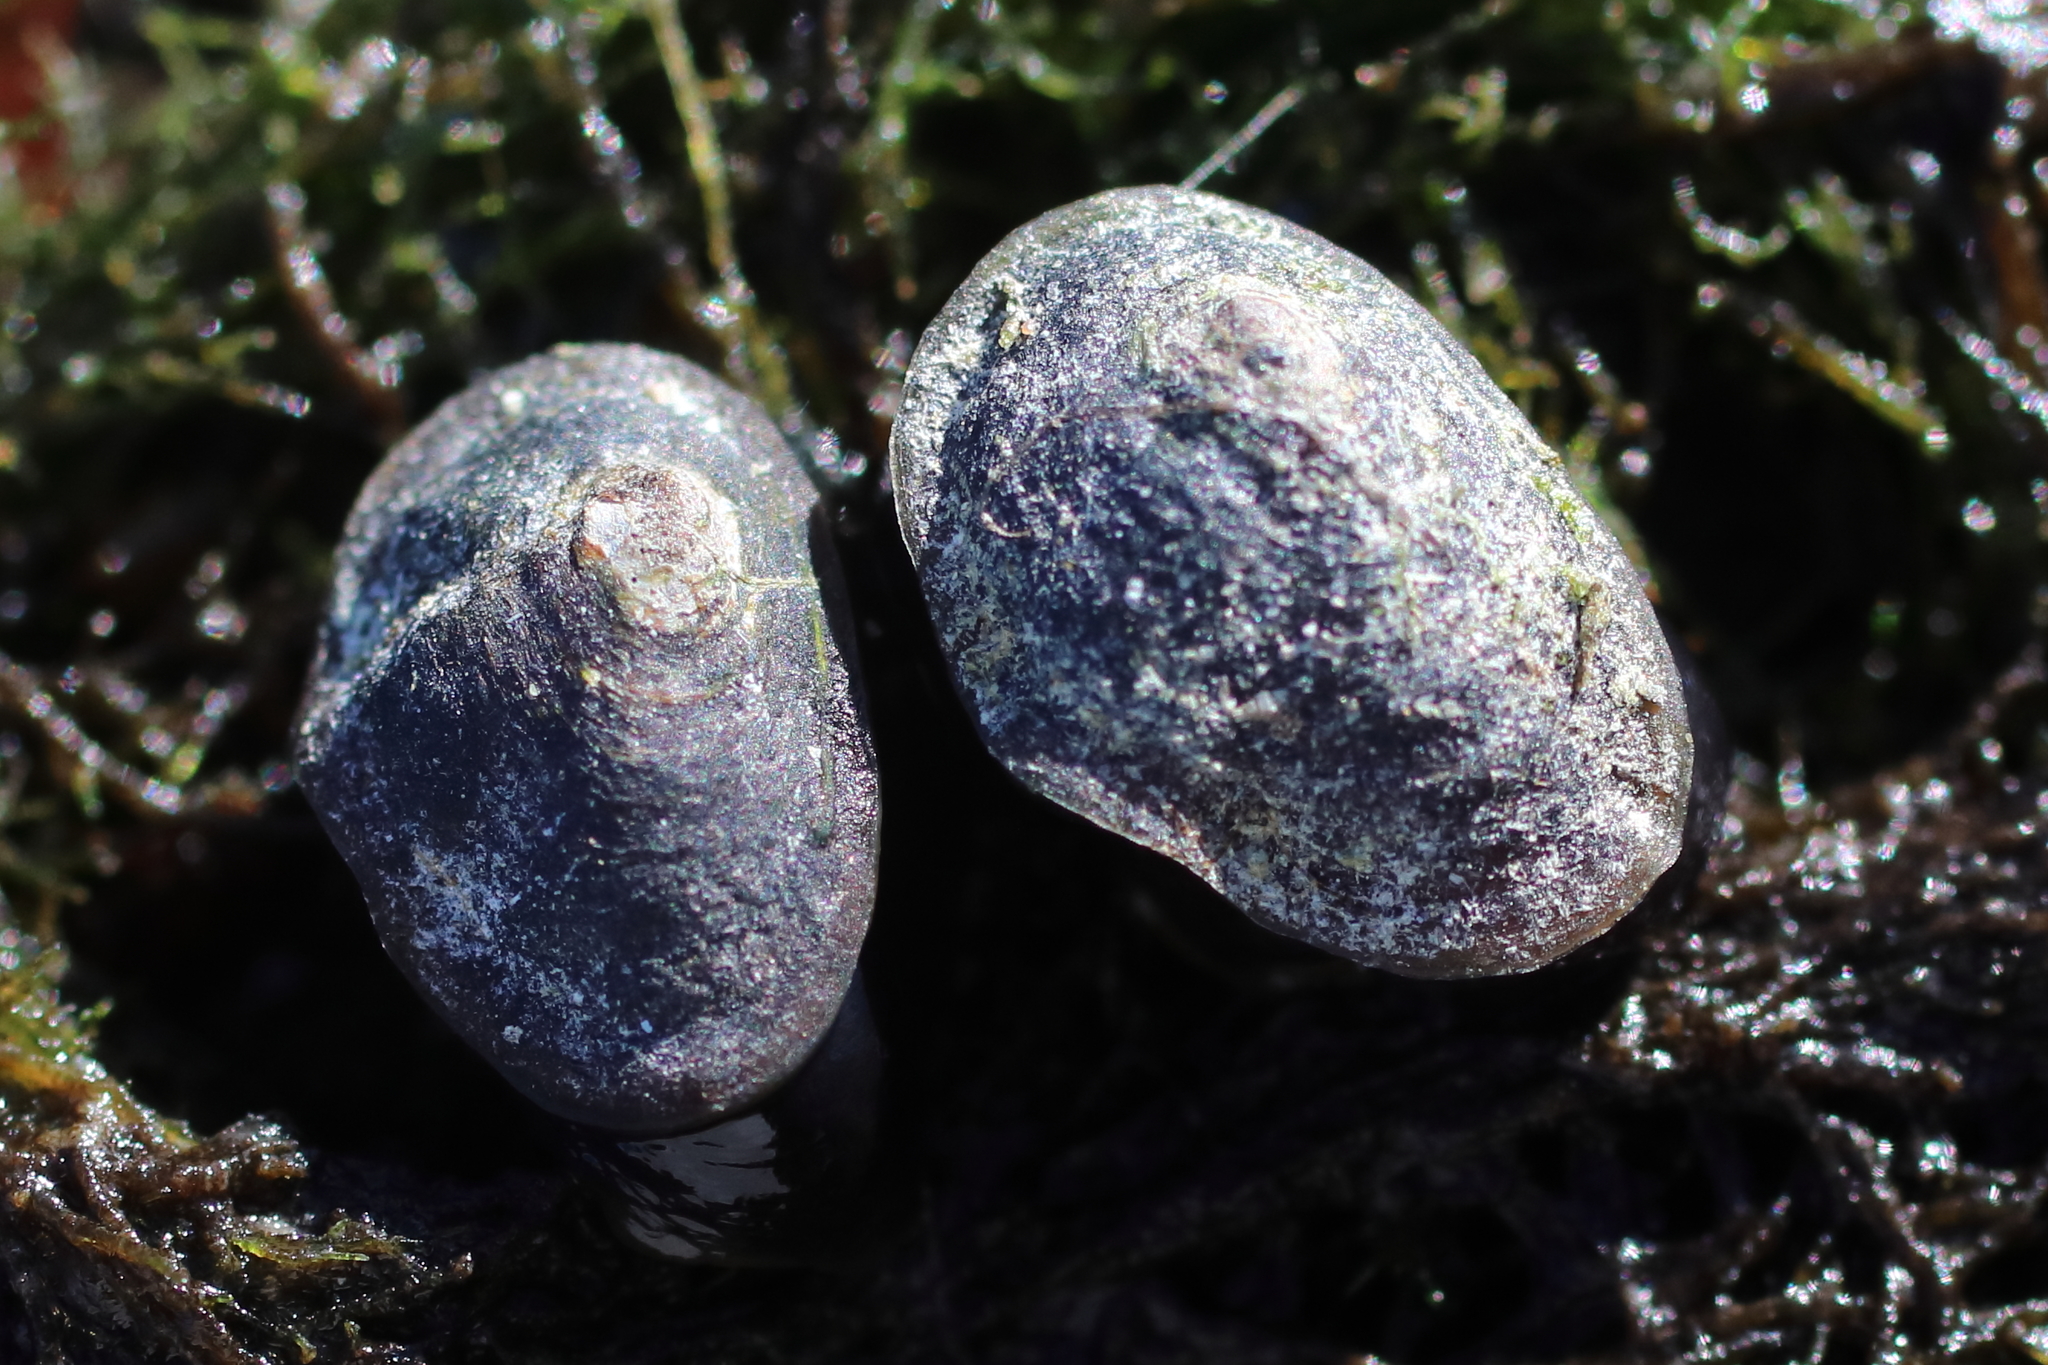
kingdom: Animalia
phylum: Mollusca
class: Gastropoda
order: Siphonariida
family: Siphonariidae
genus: Siphonaria
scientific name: Siphonaria thersites
